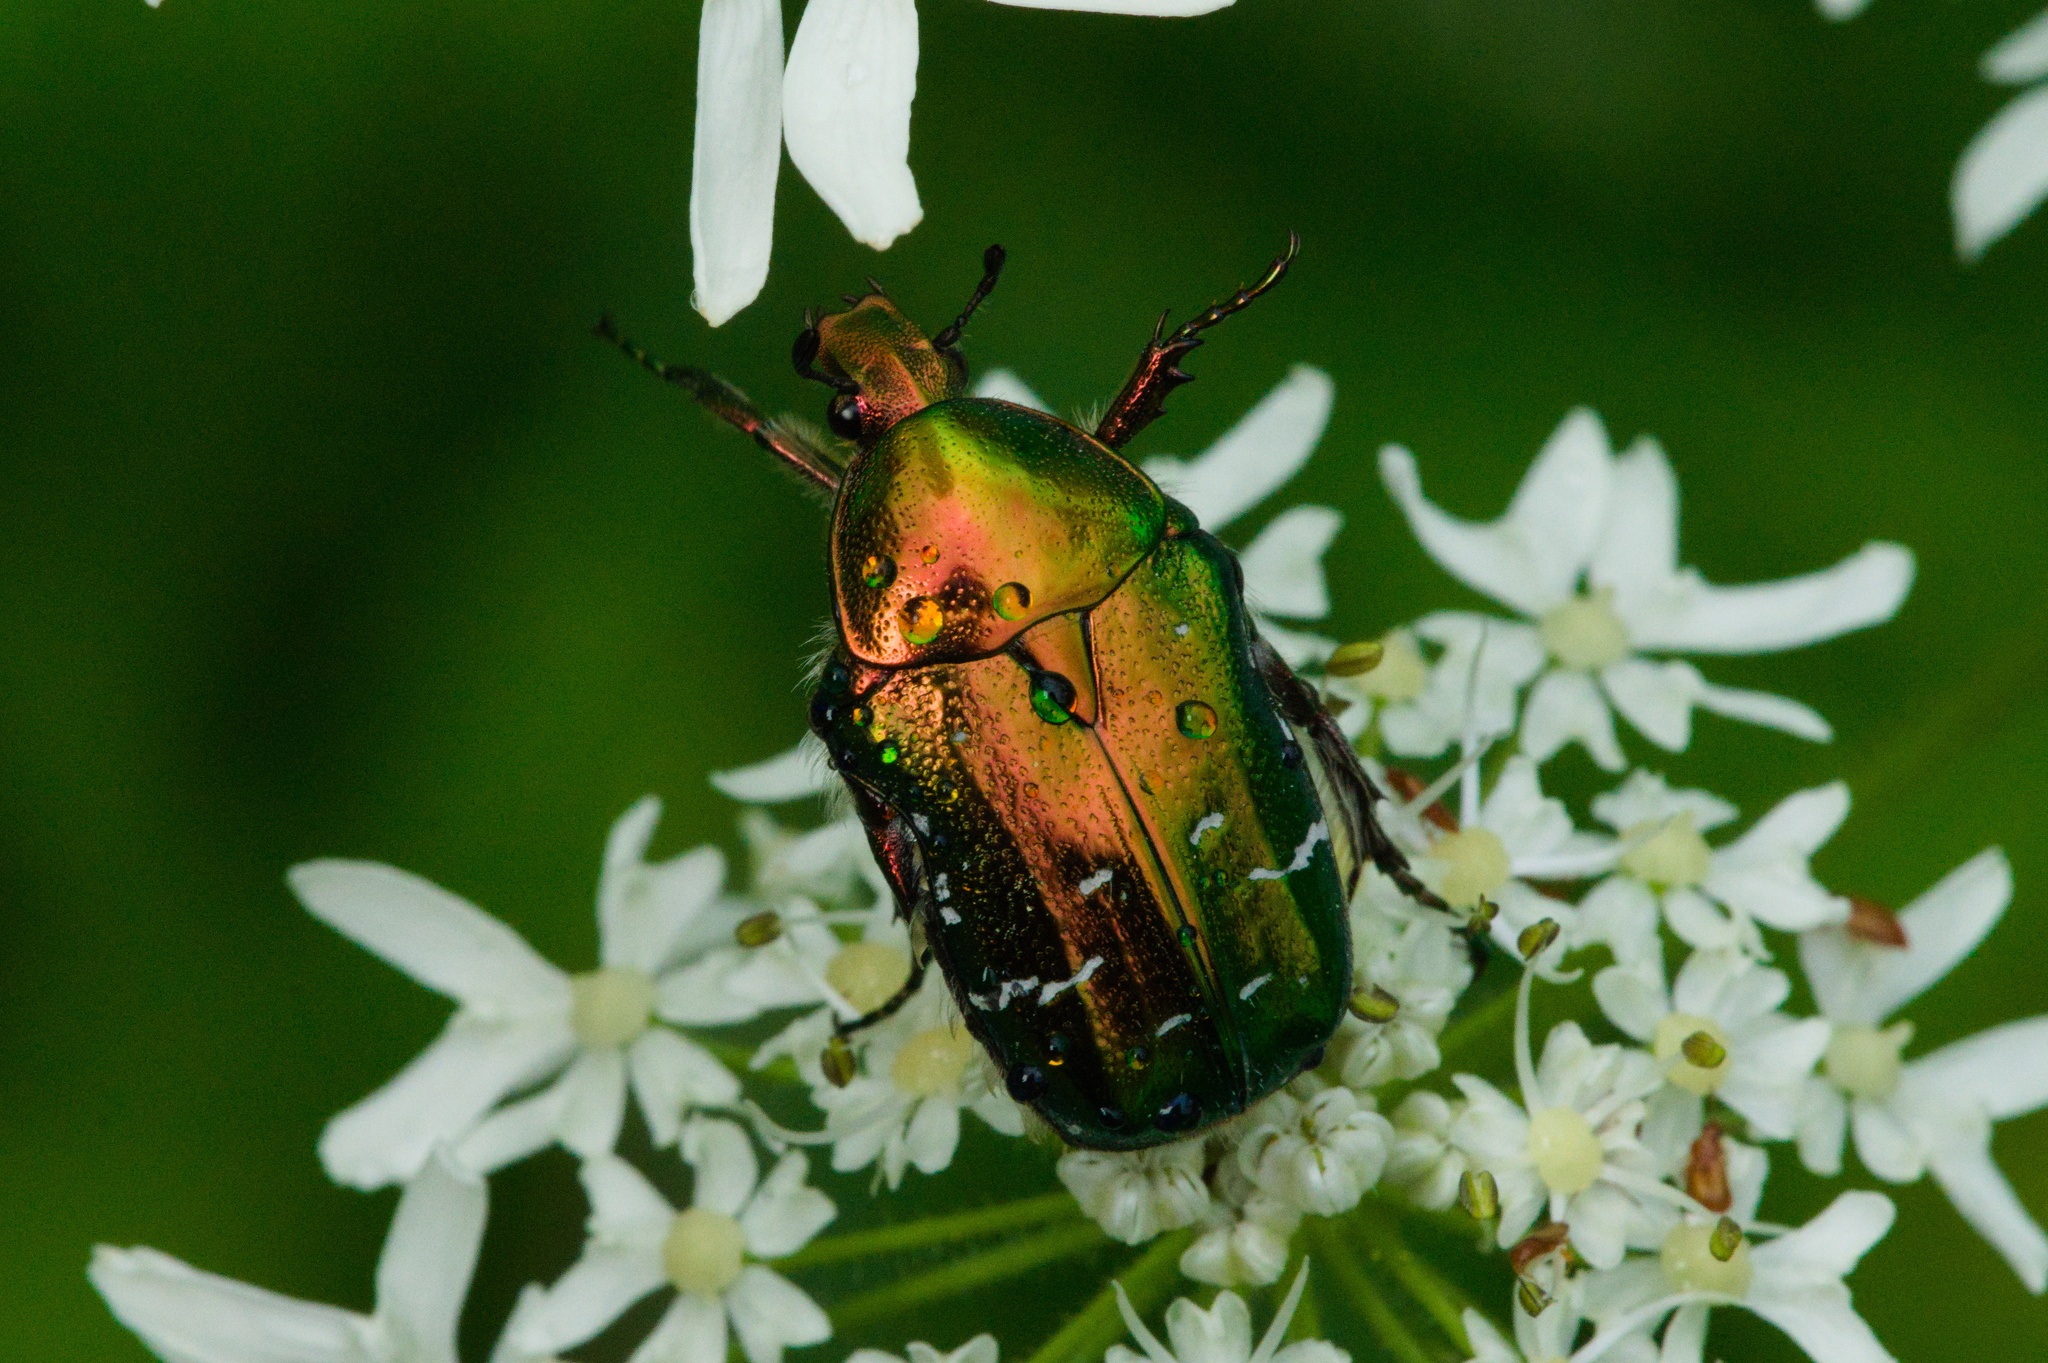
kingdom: Animalia
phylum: Arthropoda
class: Insecta
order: Coleoptera
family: Scarabaeidae
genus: Cetonia
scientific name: Cetonia aurata
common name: Rose chafer
